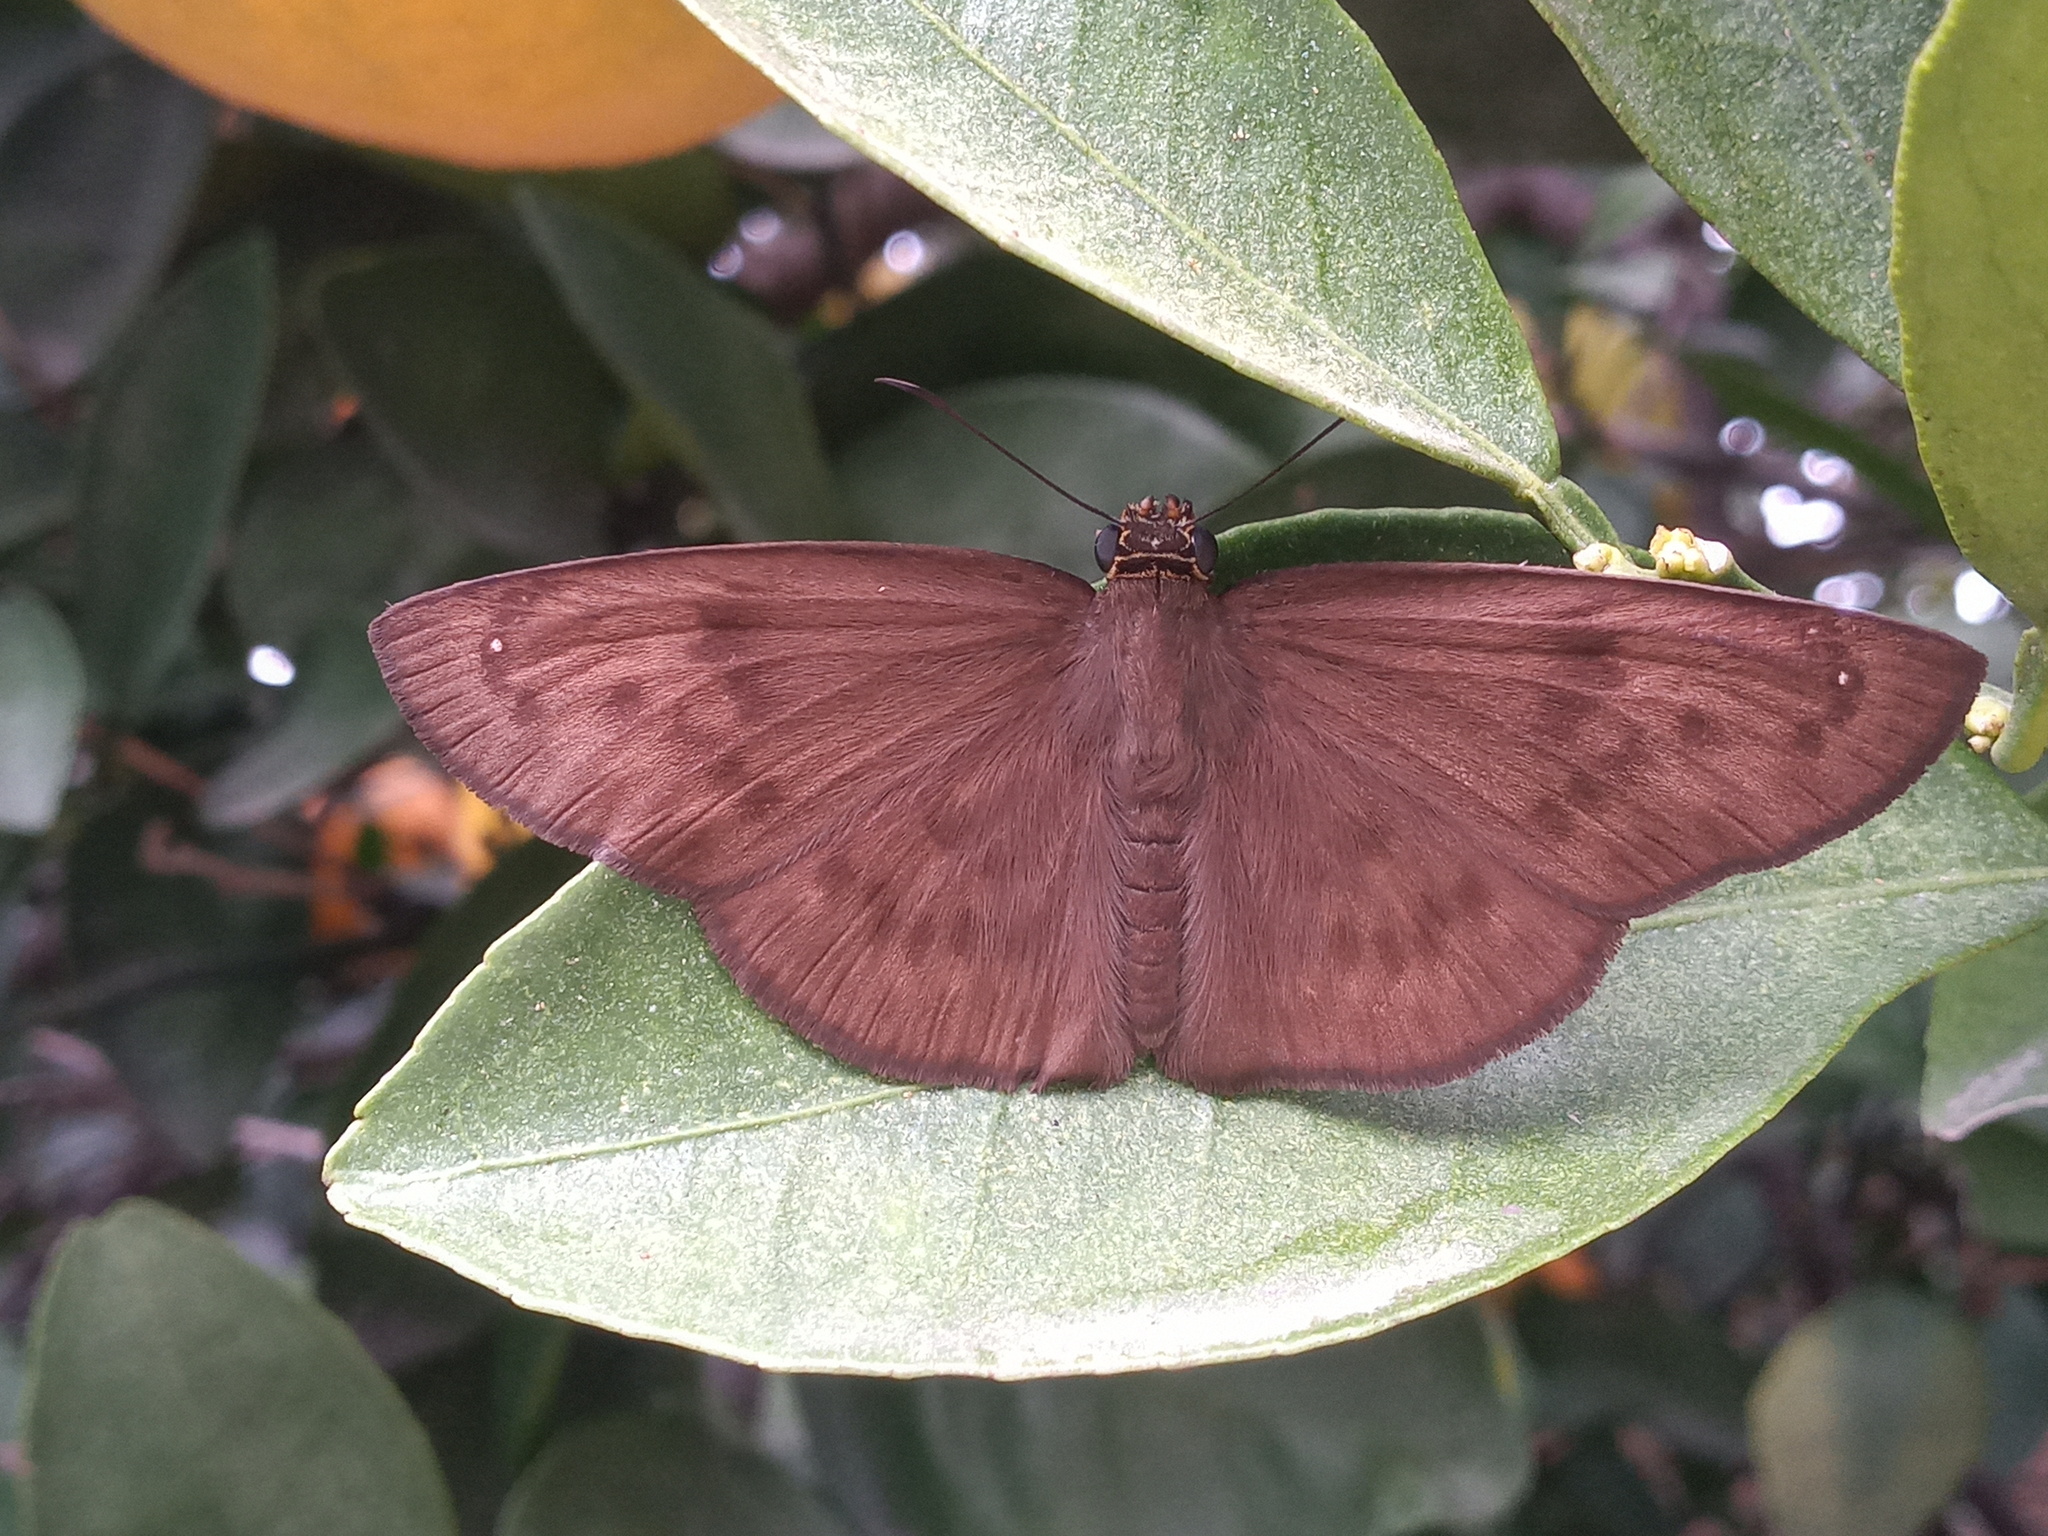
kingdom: Animalia
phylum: Arthropoda
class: Insecta
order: Lepidoptera
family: Hesperiidae
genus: Grais
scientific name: Grais stigmaticus
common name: Hermit skipper
